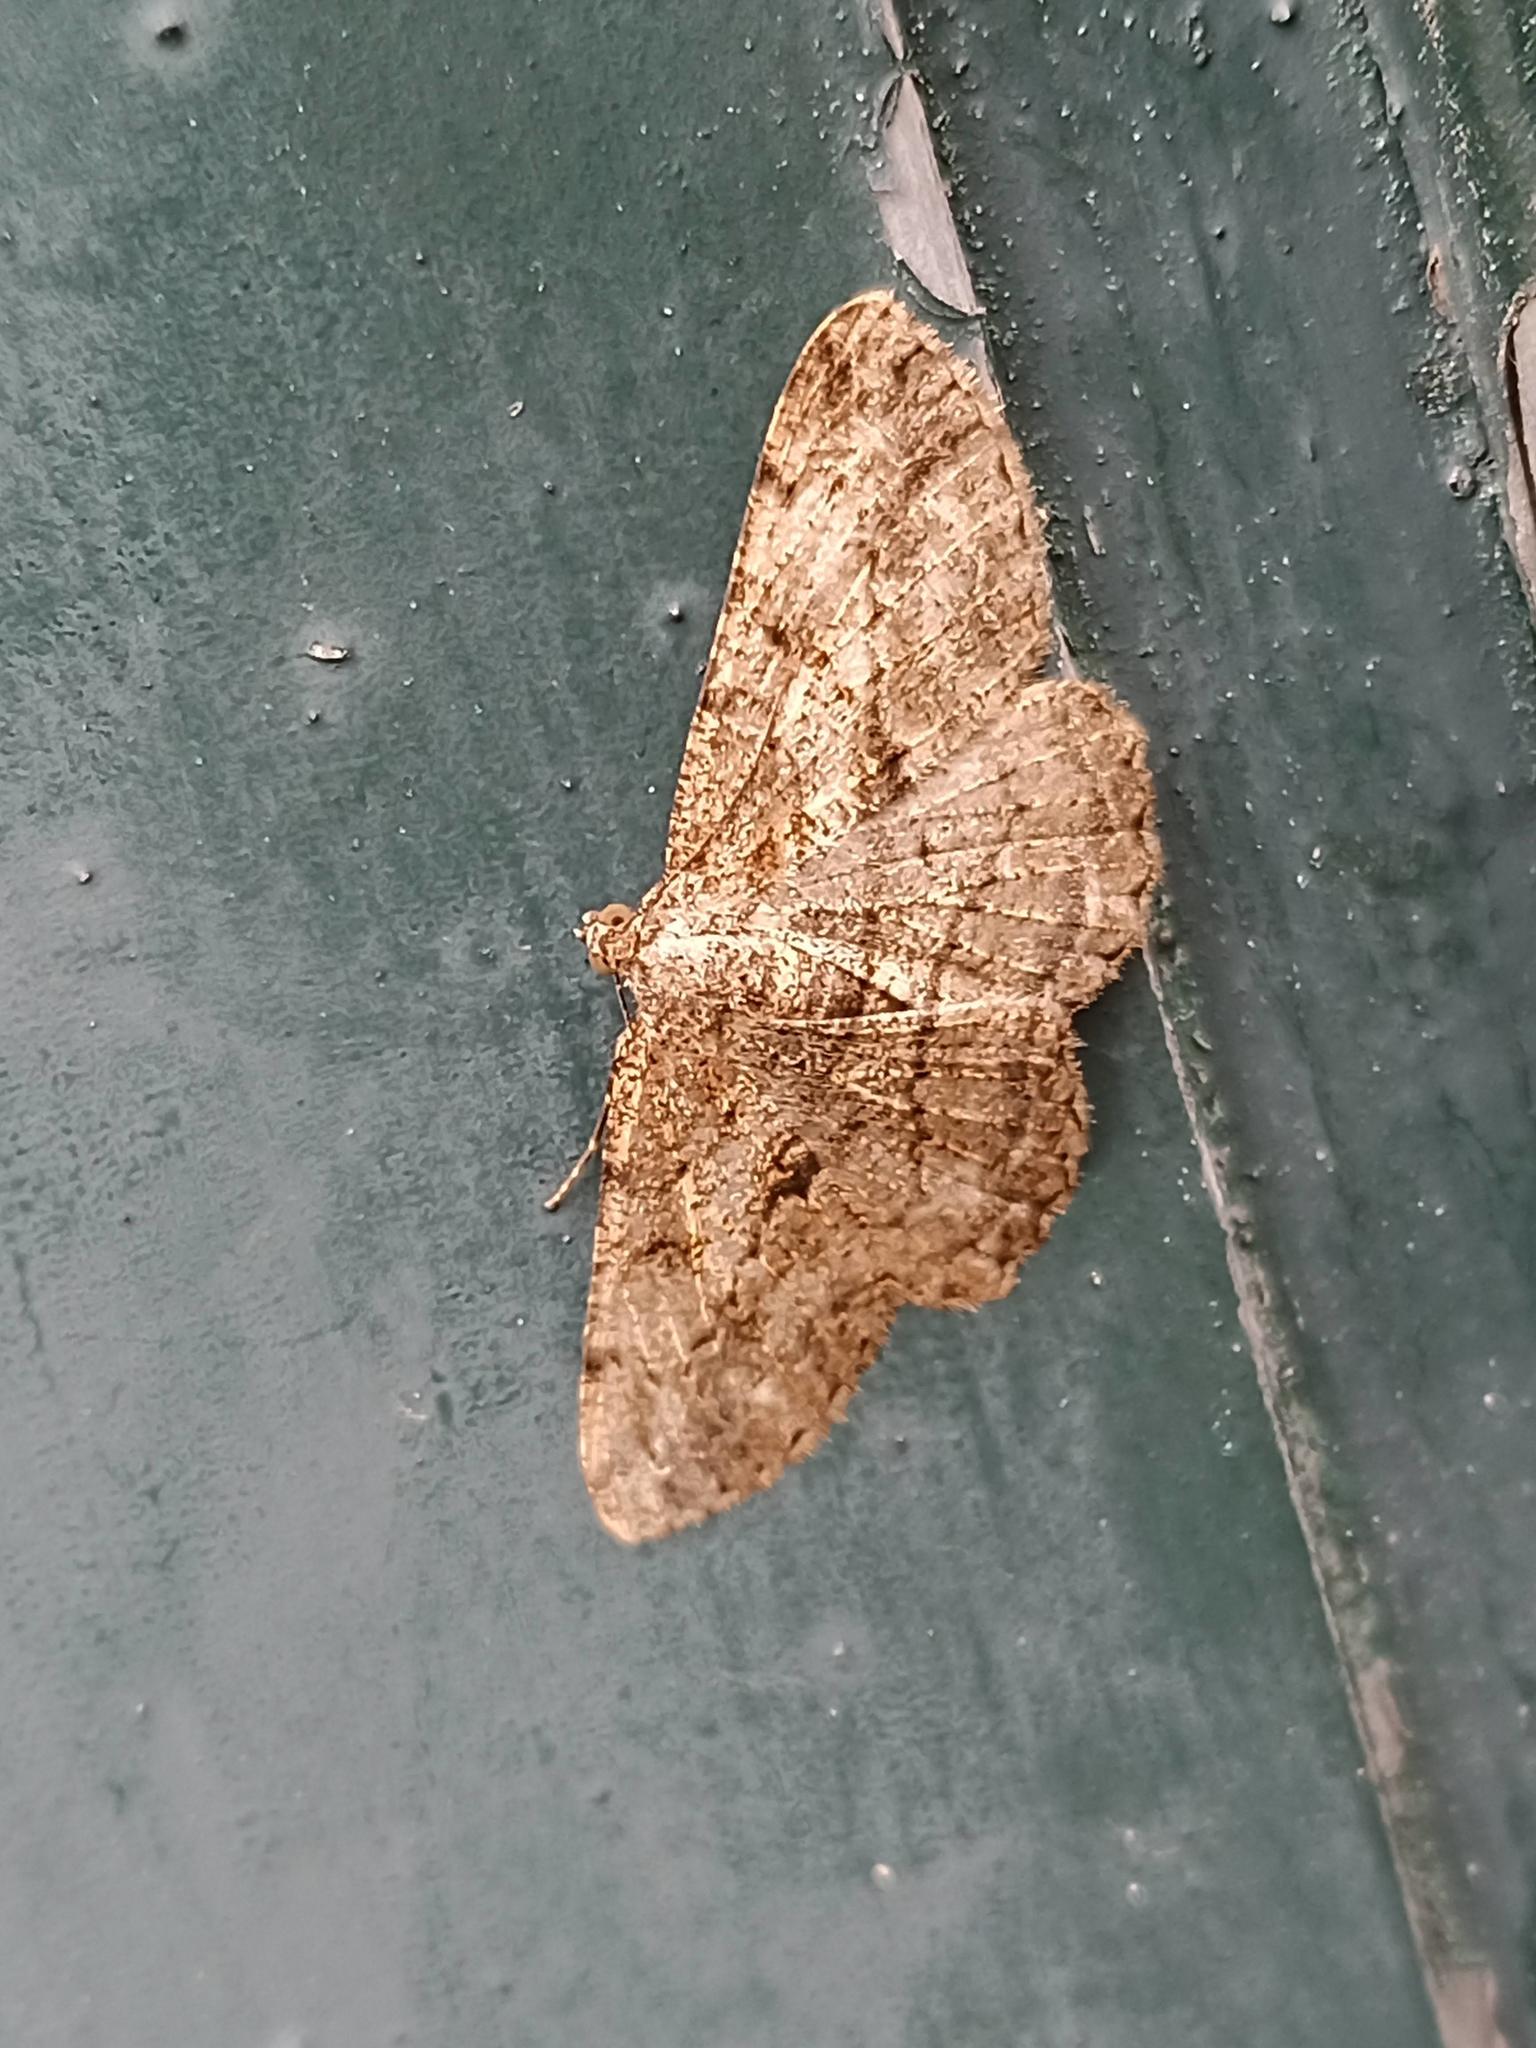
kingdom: Animalia
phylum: Arthropoda
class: Insecta
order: Lepidoptera
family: Geometridae
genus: Peribatodes
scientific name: Peribatodes rhomboidaria
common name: Willow beauty
